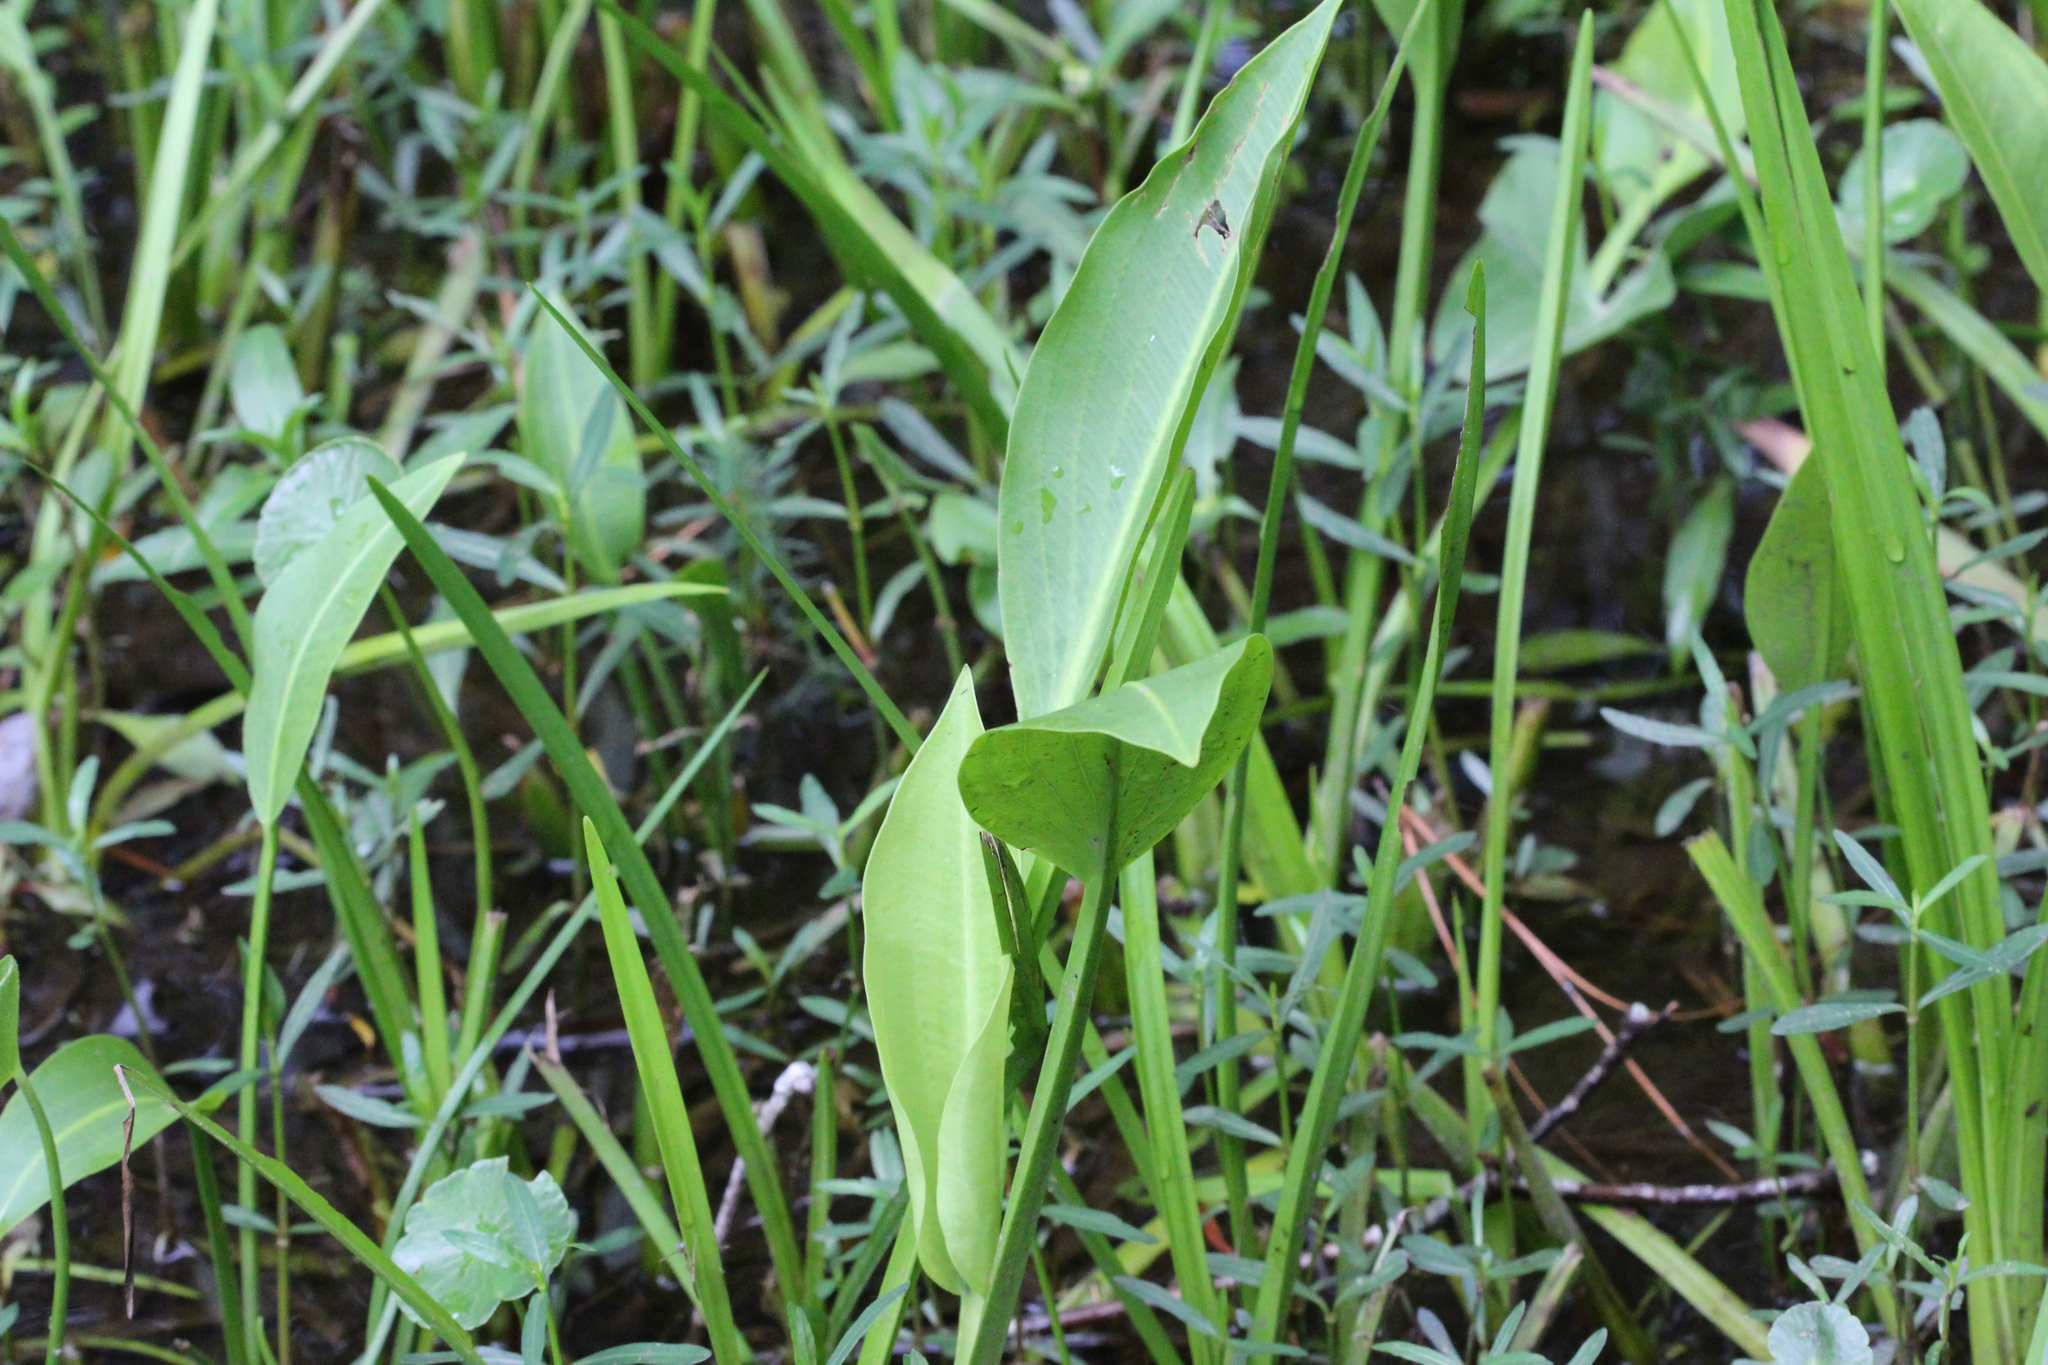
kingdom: Plantae
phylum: Tracheophyta
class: Liliopsida
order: Alismatales
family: Alismataceae
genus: Sagittaria
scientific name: Sagittaria platyphylla
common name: Broad-leaf arrowhead
